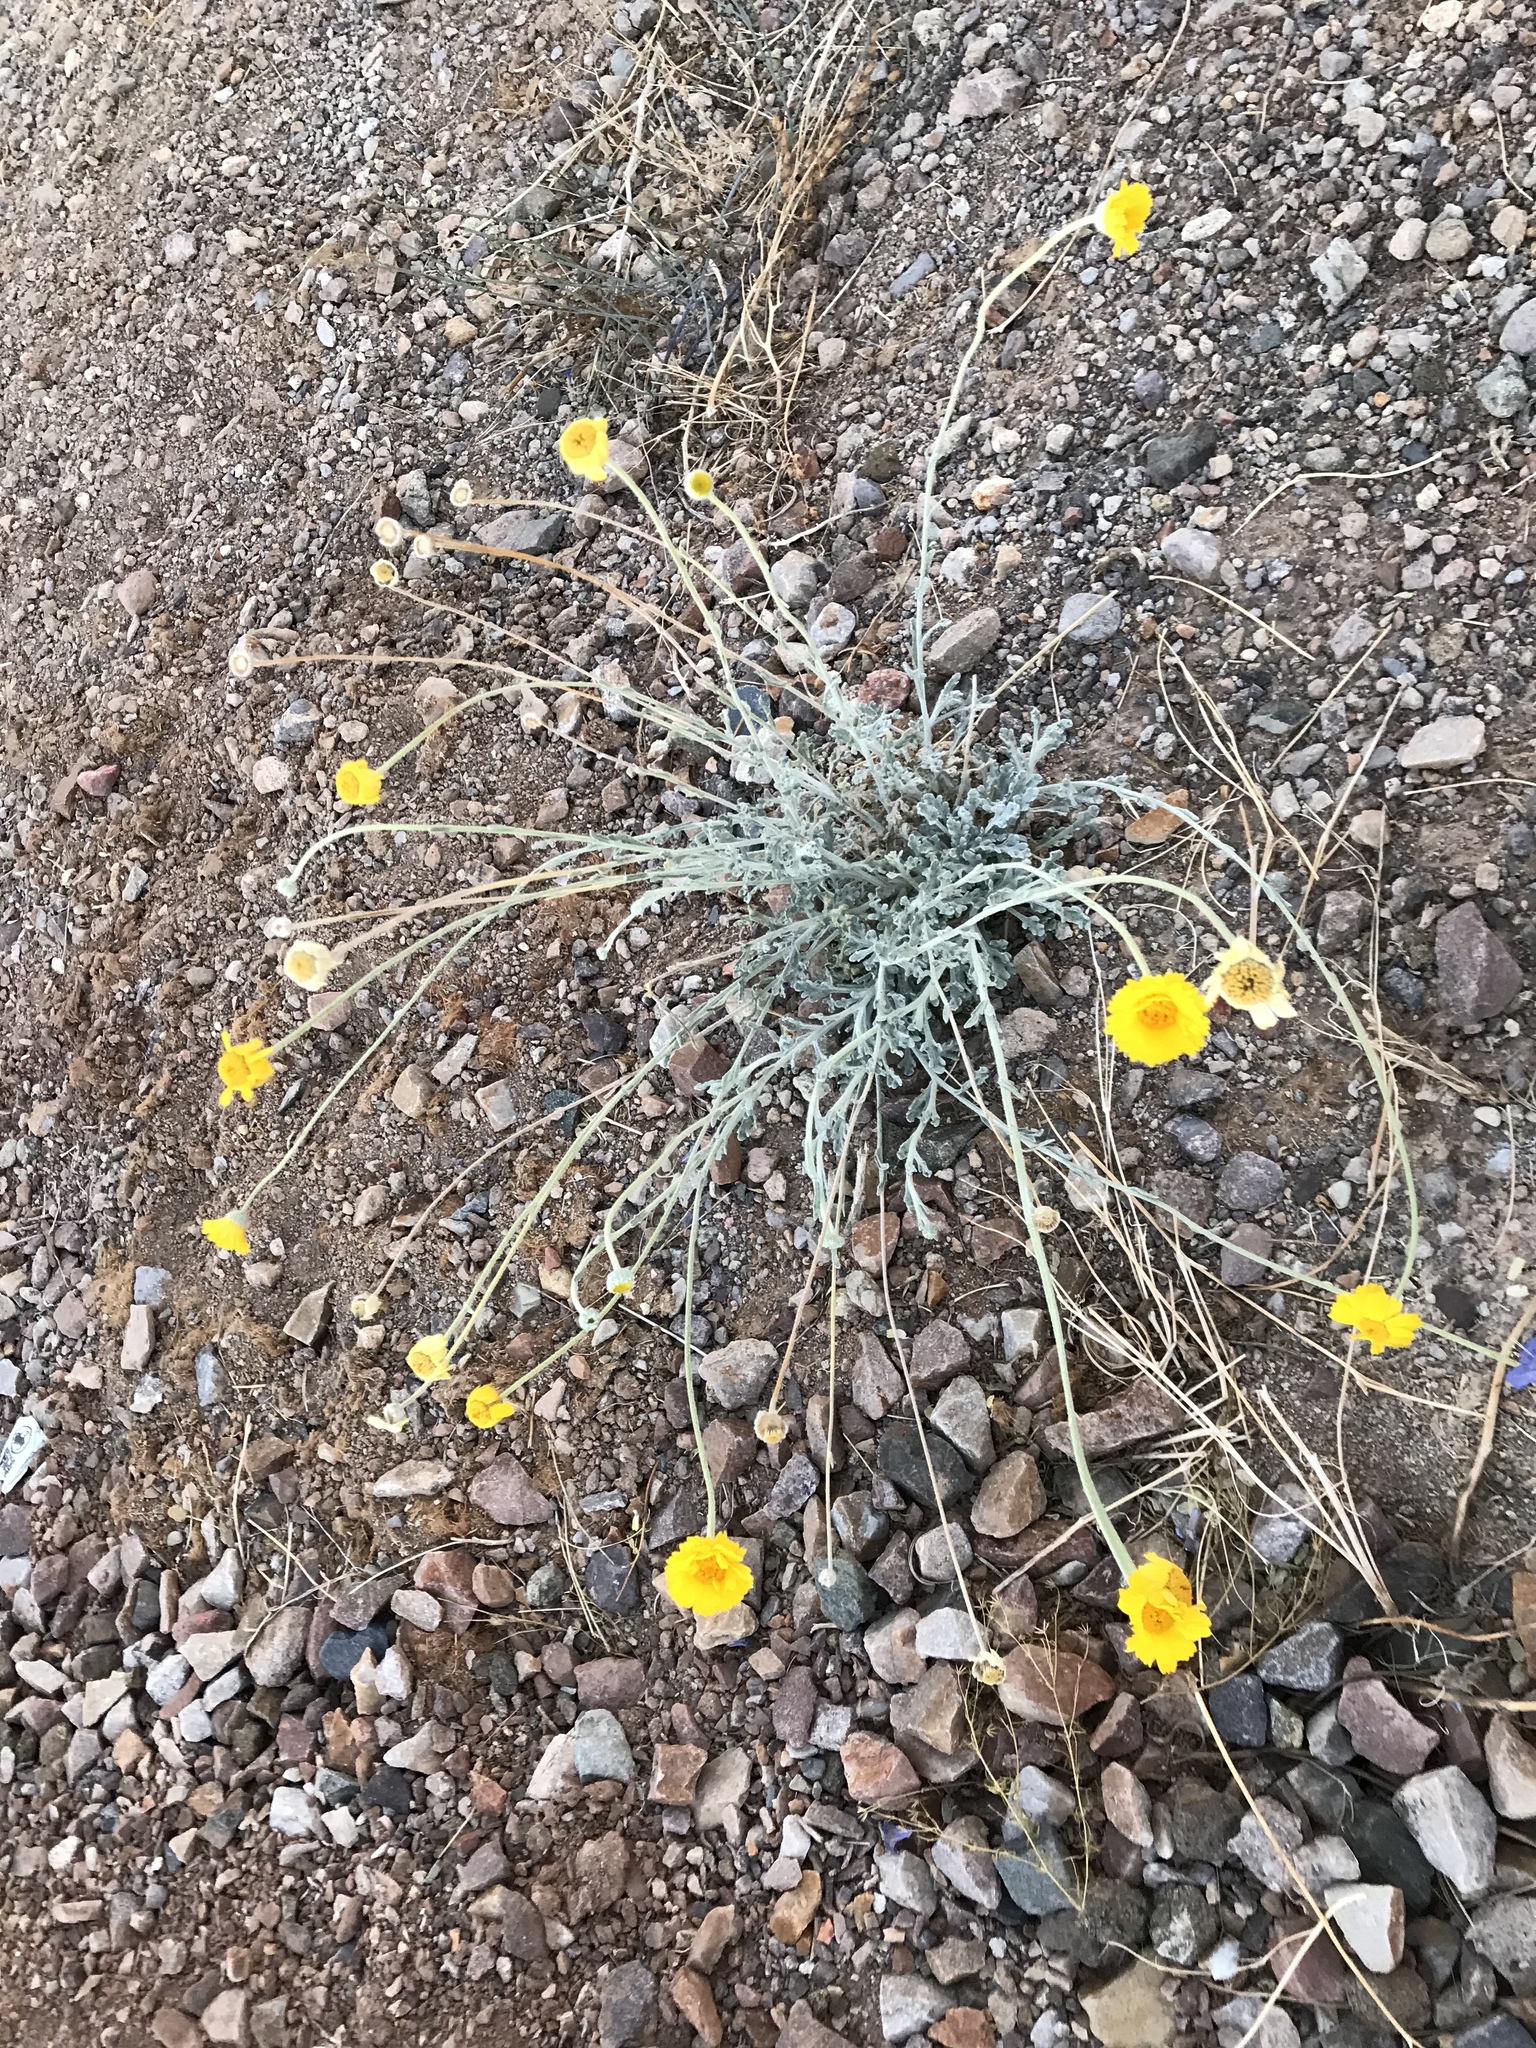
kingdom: Plantae
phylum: Tracheophyta
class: Magnoliopsida
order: Asterales
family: Asteraceae
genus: Baileya
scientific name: Baileya multiradiata
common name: Desert-marigold
